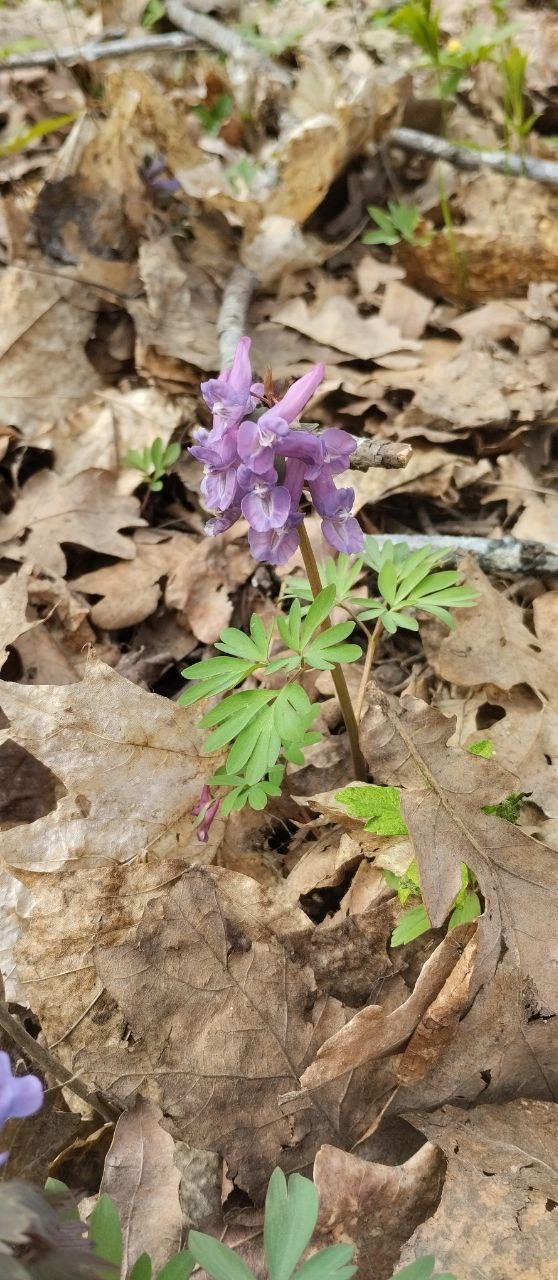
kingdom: Plantae
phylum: Tracheophyta
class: Magnoliopsida
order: Ranunculales
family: Papaveraceae
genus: Corydalis
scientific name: Corydalis solida
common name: Bird-in-a-bush
